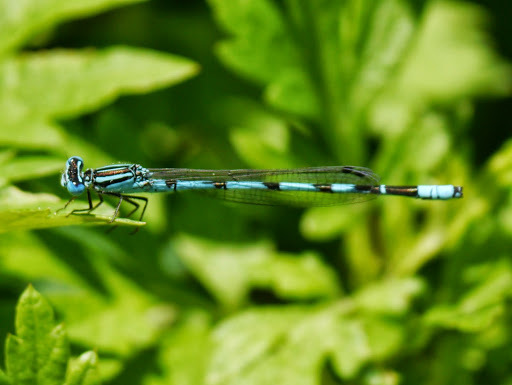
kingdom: Animalia
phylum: Arthropoda
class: Insecta
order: Odonata
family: Coenagrionidae
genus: Enallagma
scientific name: Enallagma durum
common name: Big bluet
